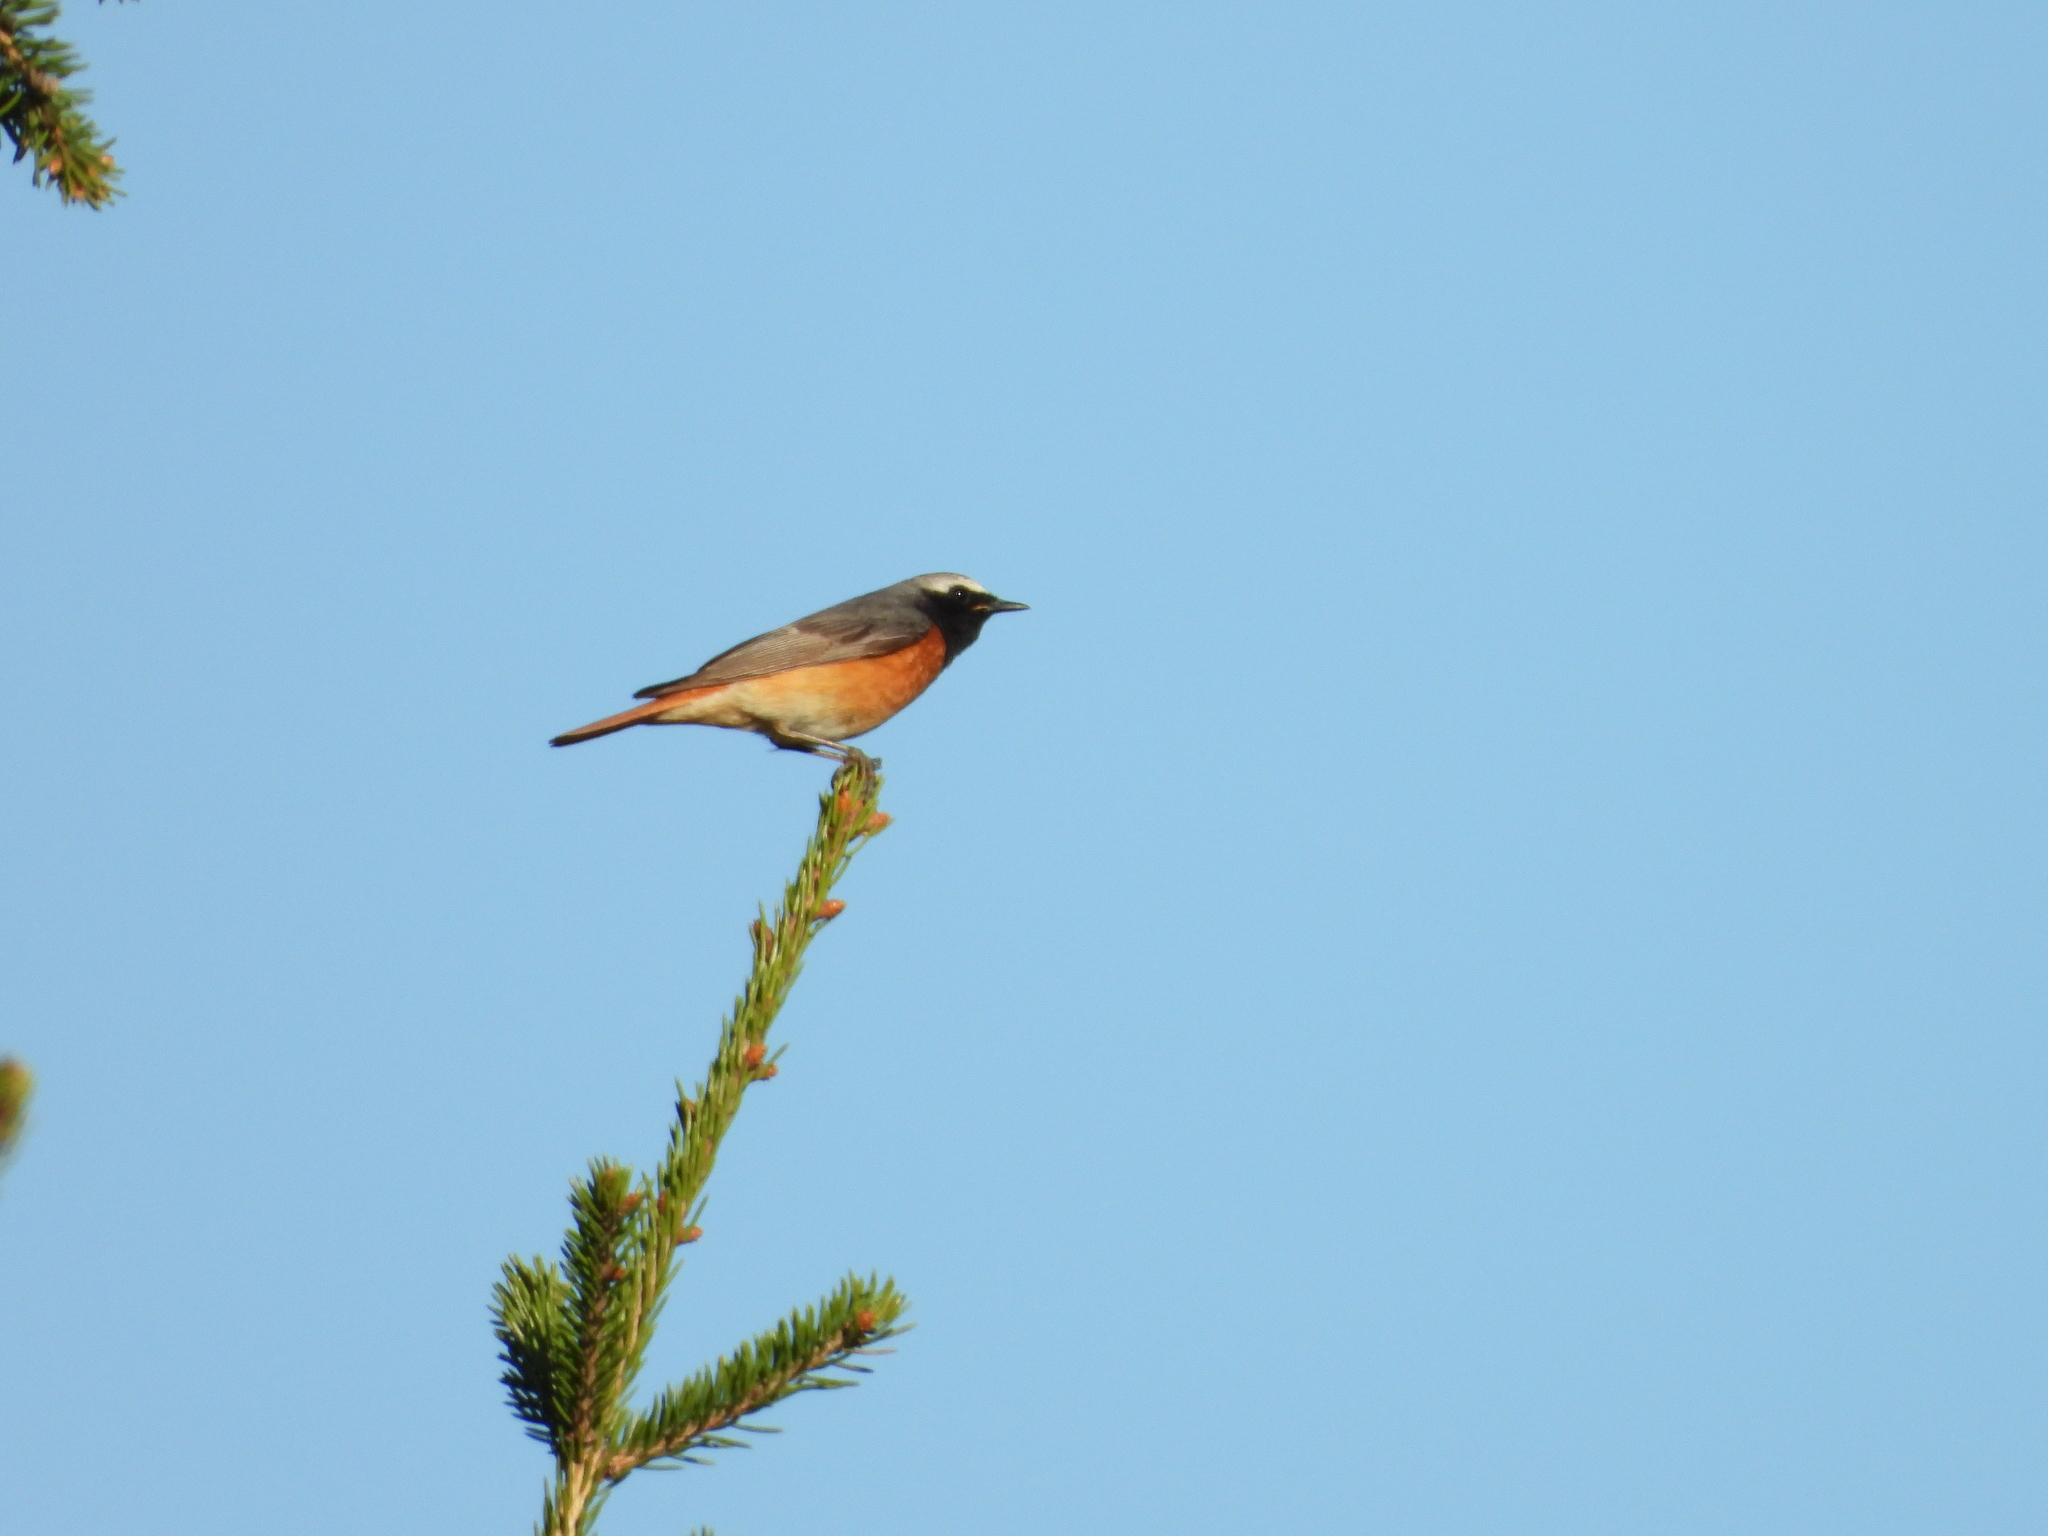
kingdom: Animalia
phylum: Chordata
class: Aves
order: Passeriformes
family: Muscicapidae
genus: Phoenicurus
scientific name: Phoenicurus phoenicurus
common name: Common redstart
